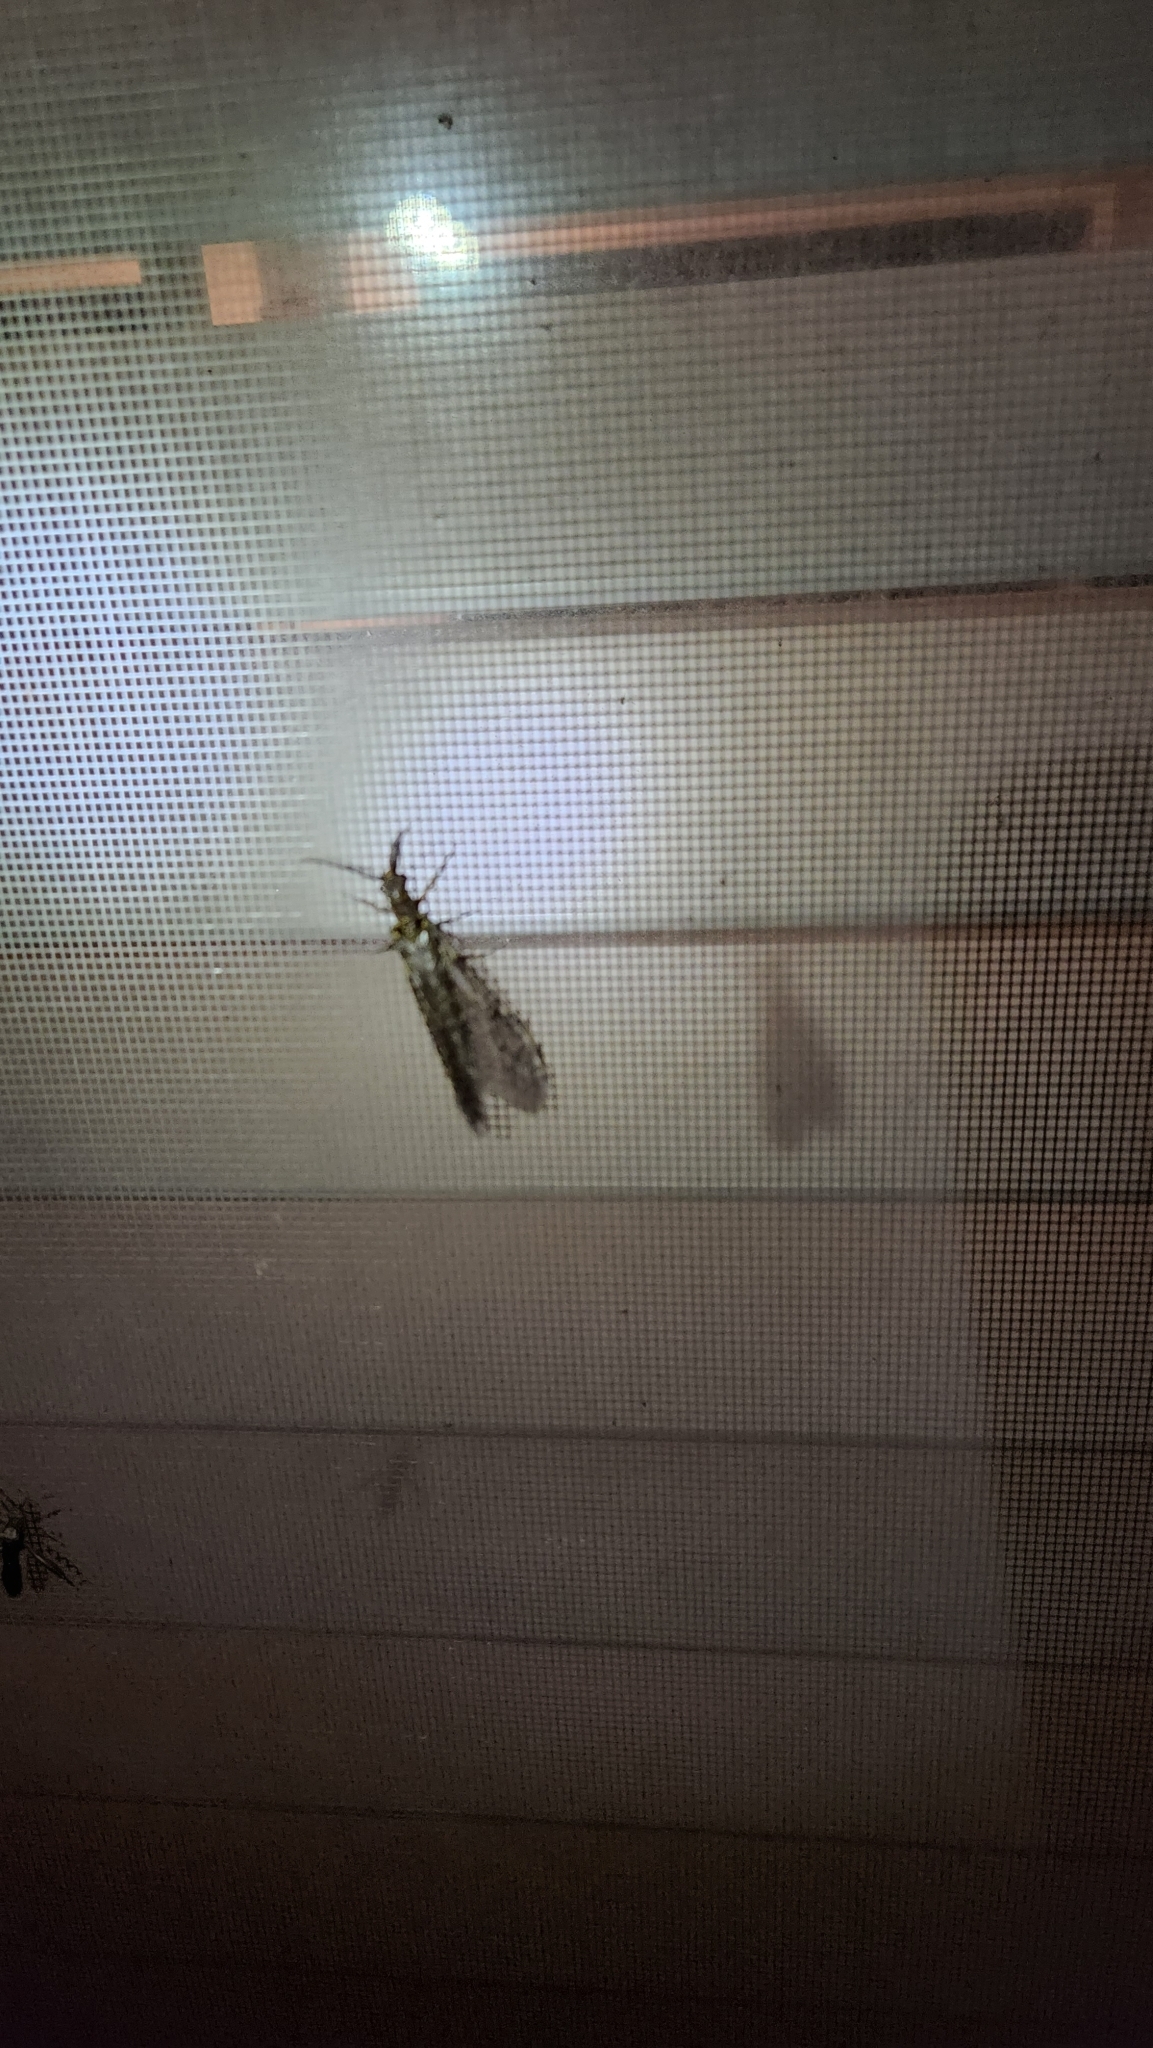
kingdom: Animalia
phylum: Arthropoda
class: Insecta
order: Megaloptera
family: Corydalidae
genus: Chauliodes
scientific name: Chauliodes rastricornis
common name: Spring fishfly
